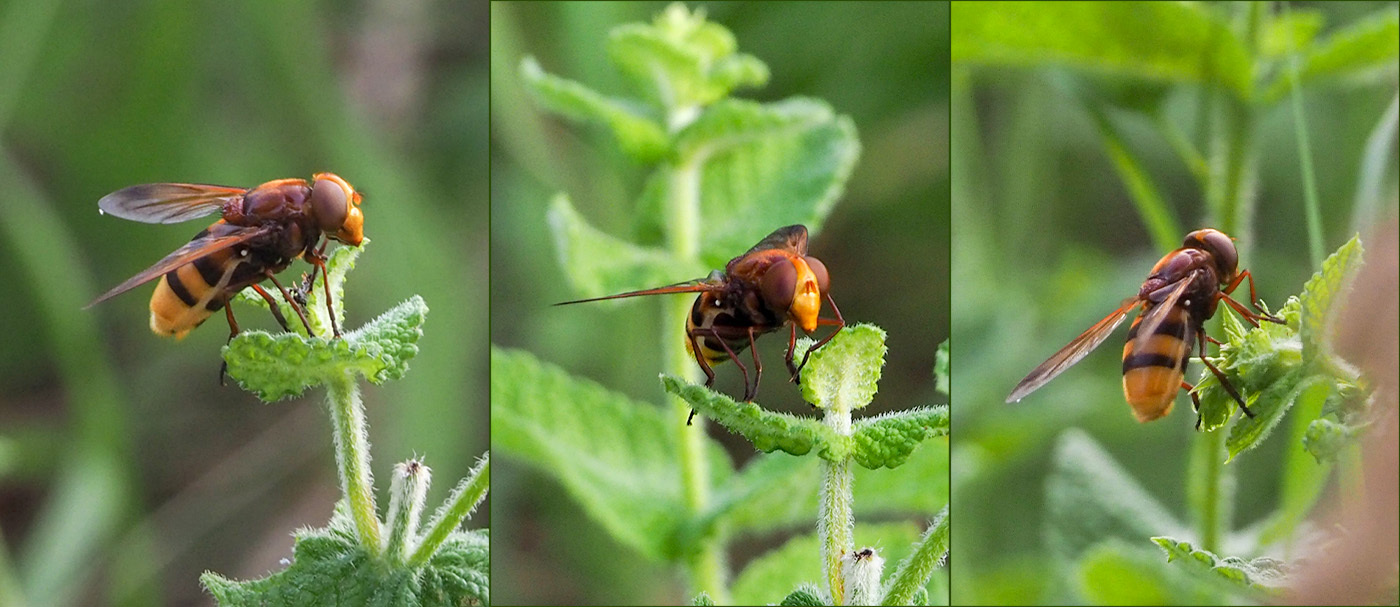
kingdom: Animalia
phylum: Arthropoda
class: Insecta
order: Diptera
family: Syrphidae
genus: Volucella
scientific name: Volucella zonaria
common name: Hornet hoverfly
